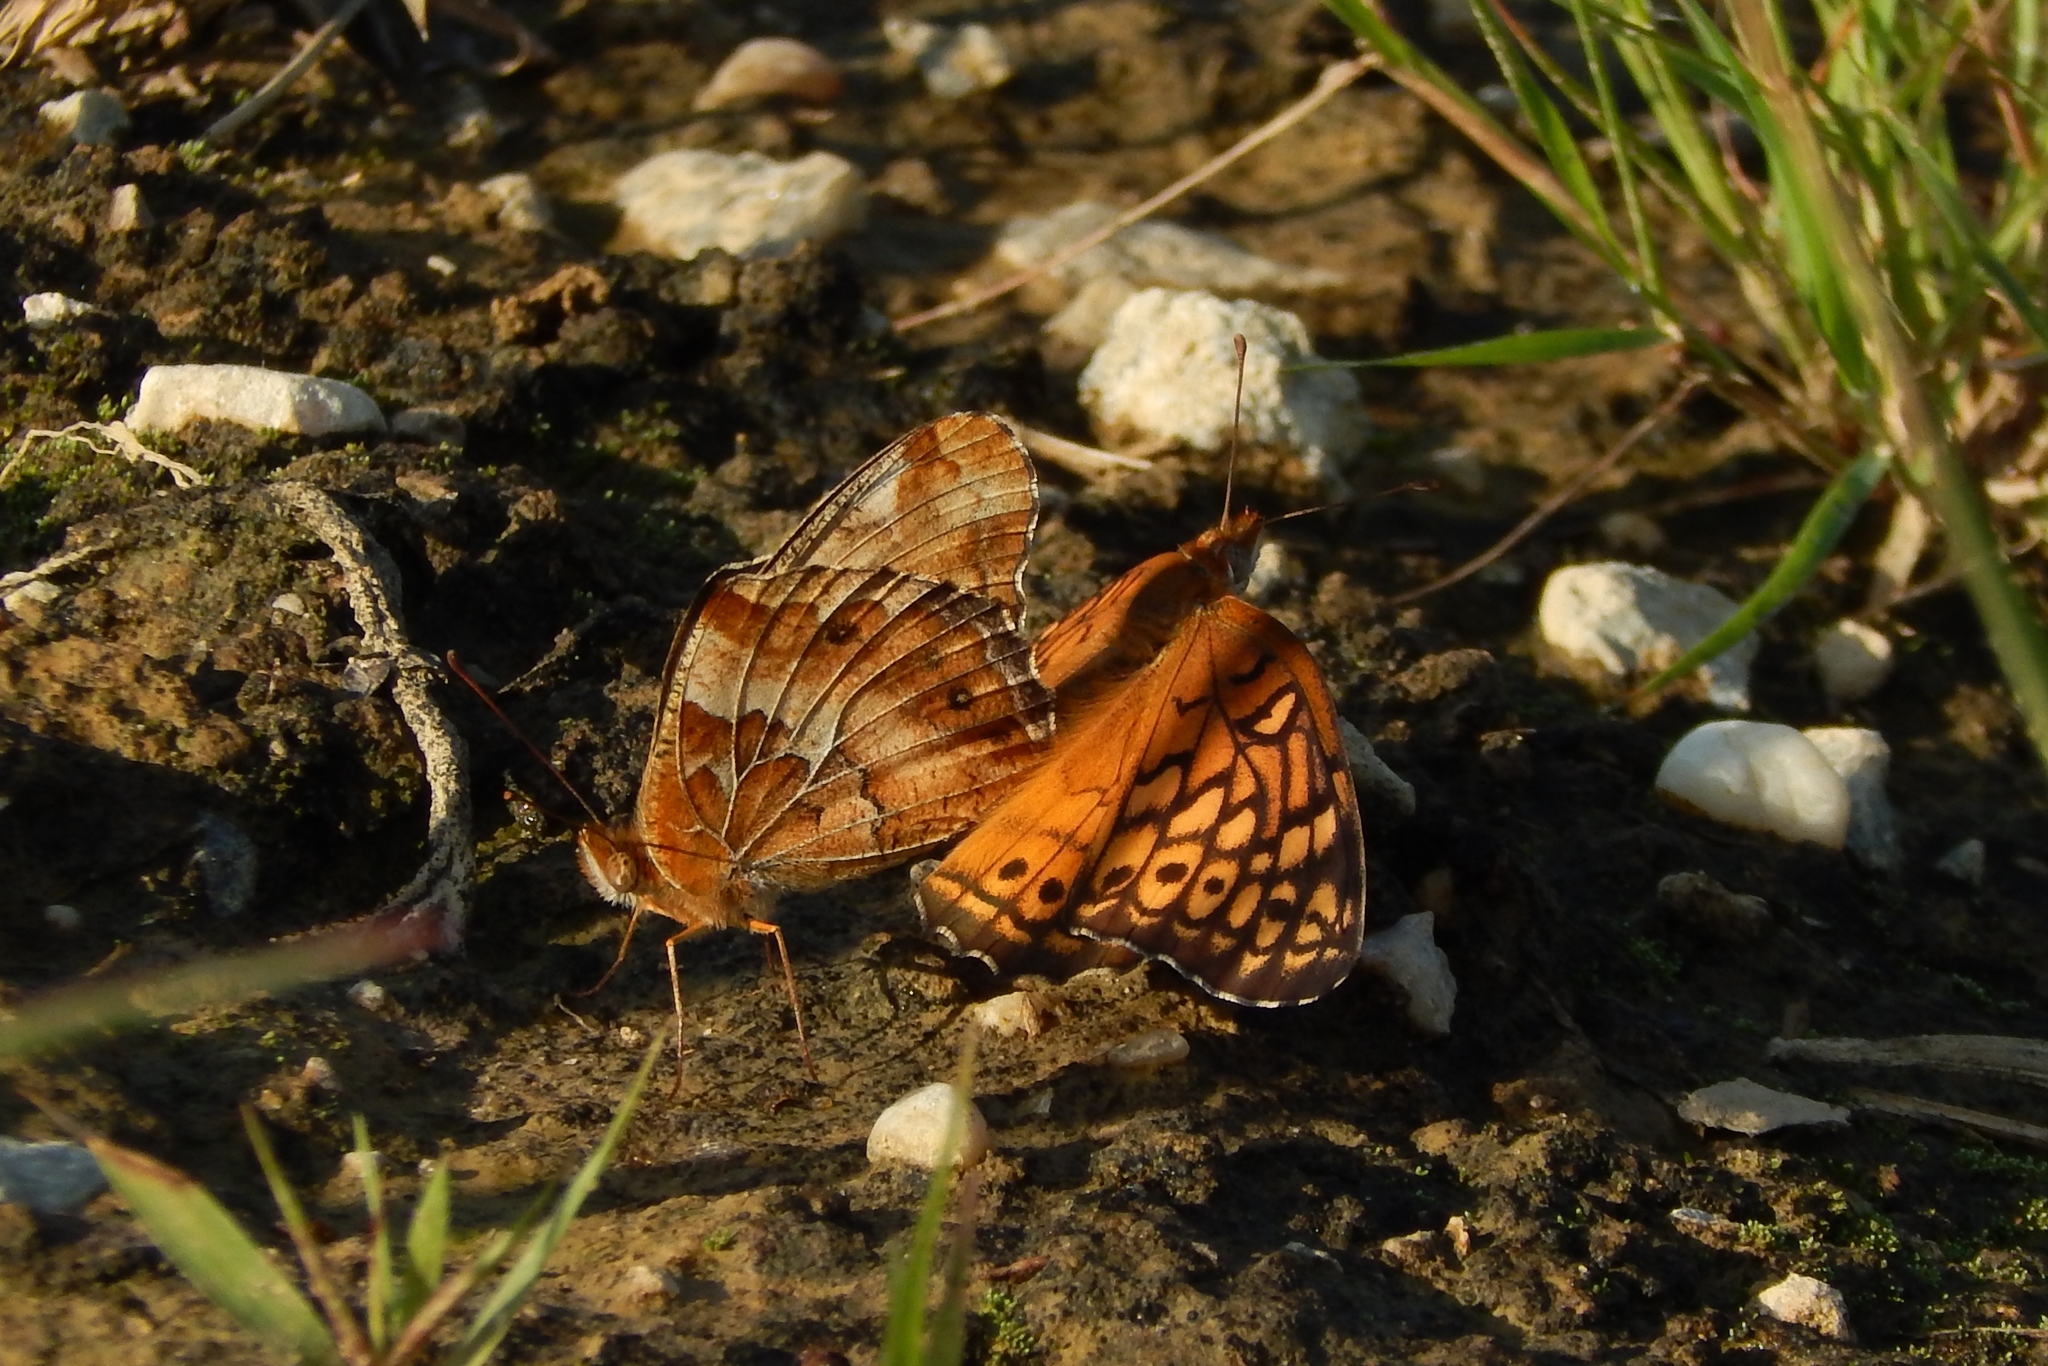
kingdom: Animalia
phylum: Arthropoda
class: Insecta
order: Lepidoptera
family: Nymphalidae
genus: Euptoieta
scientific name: Euptoieta claudia
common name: Variegated fritillary
